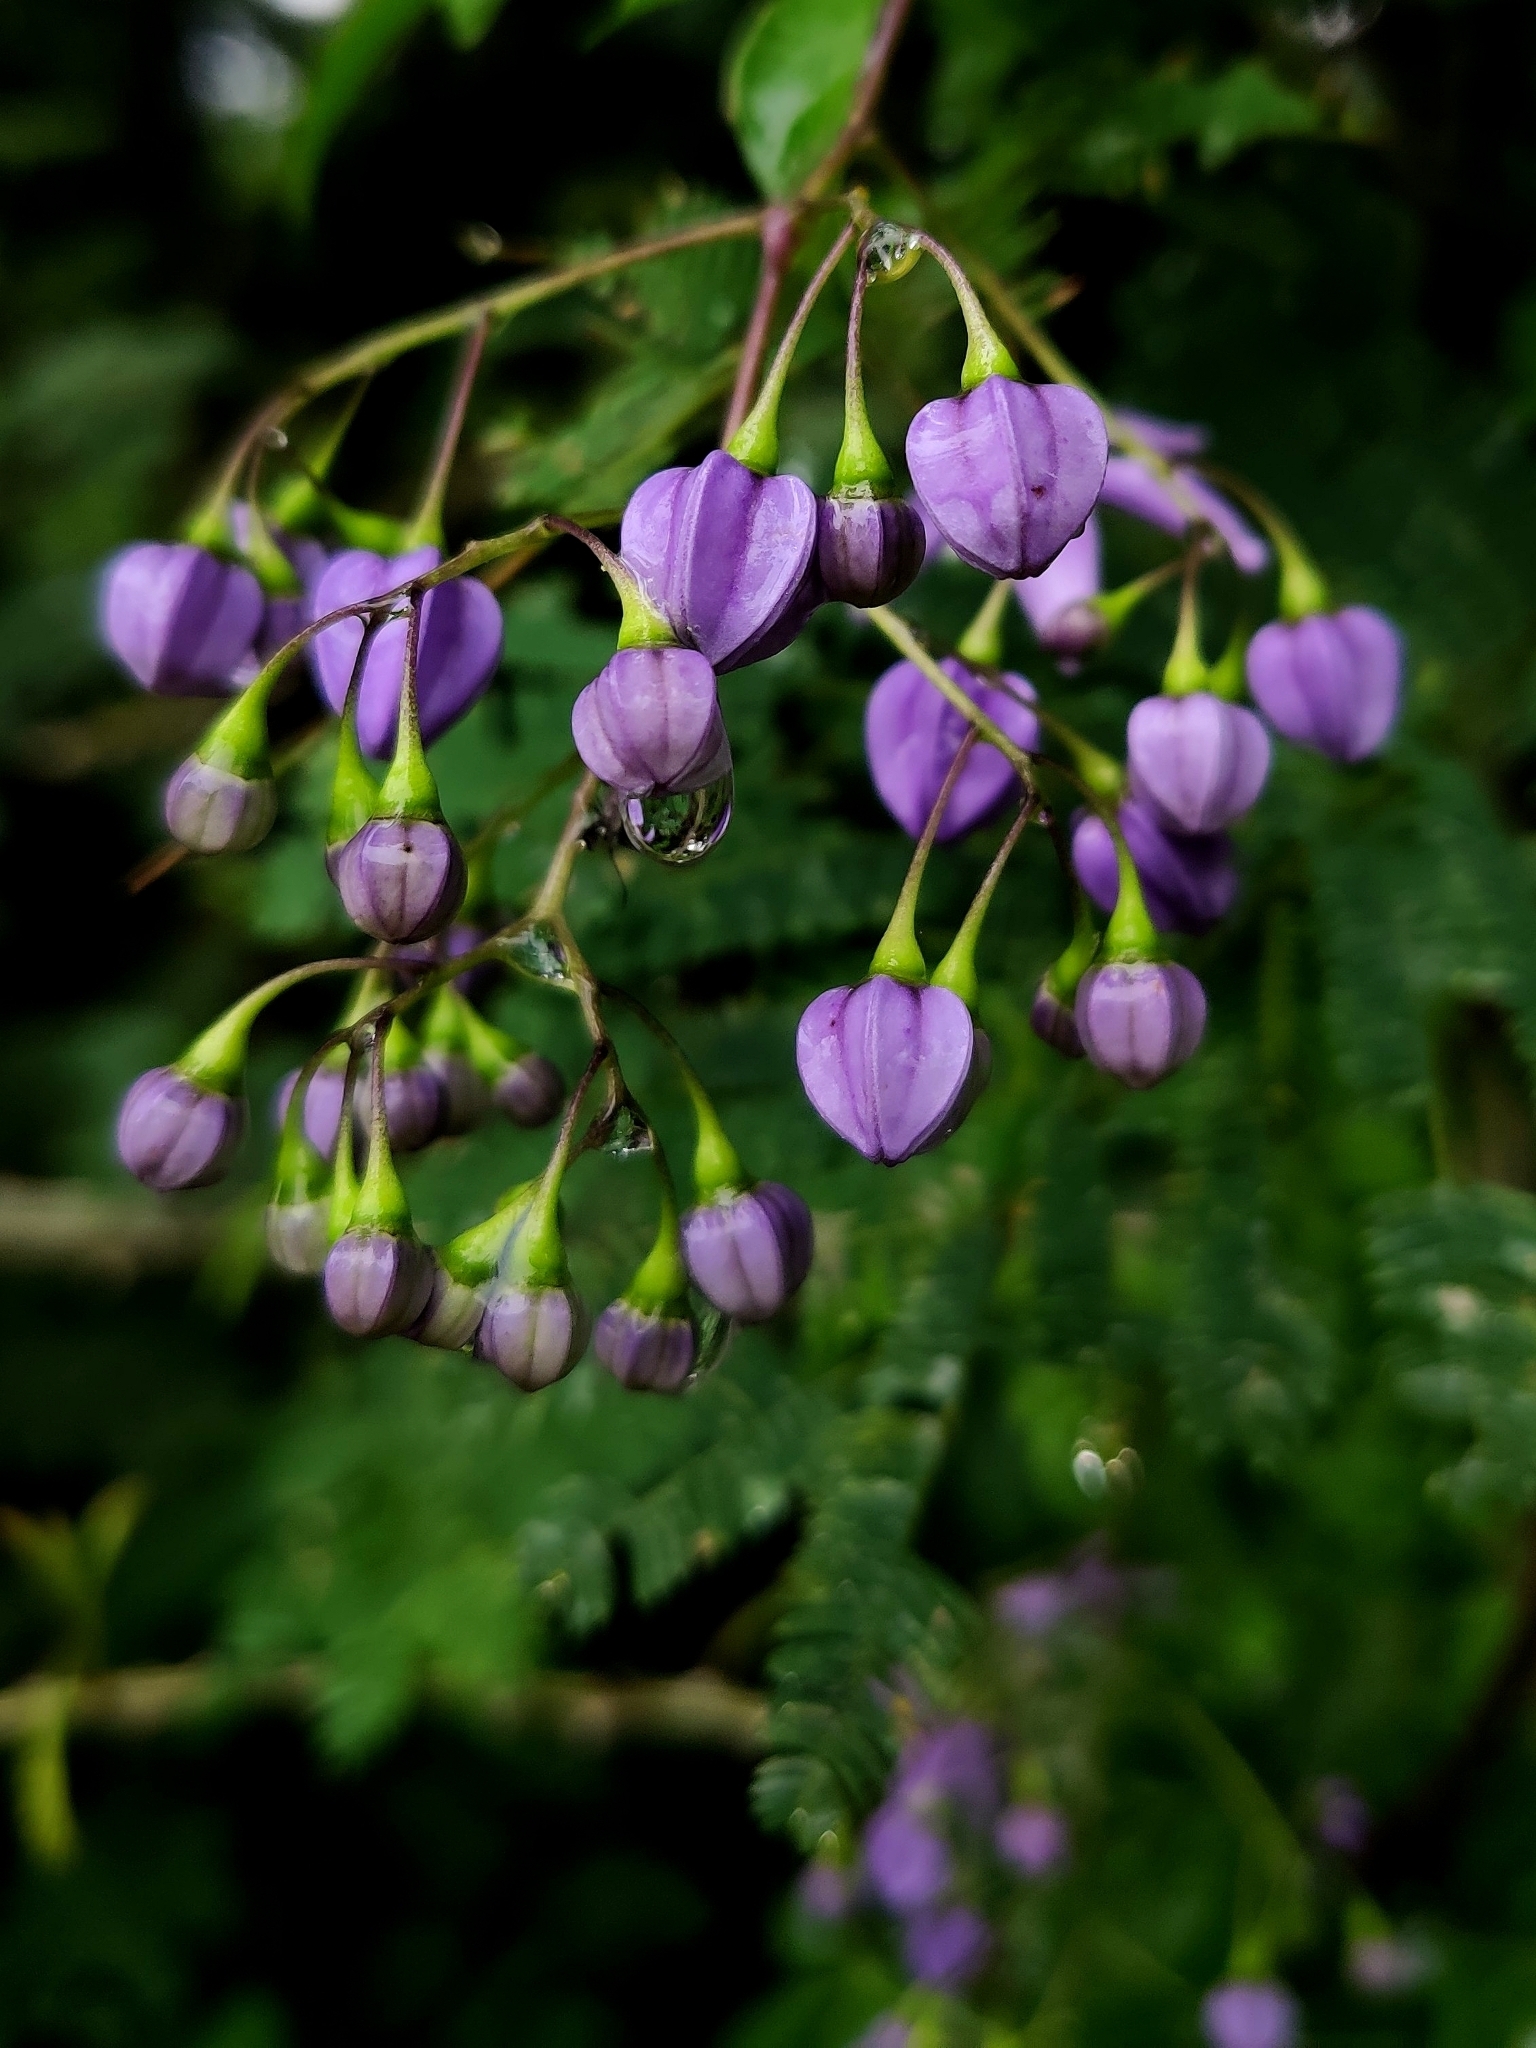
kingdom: Plantae
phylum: Tracheophyta
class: Magnoliopsida
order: Solanales
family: Solanaceae
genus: Solanum
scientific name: Solanum seaforthianum
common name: Brazilian nightshade
